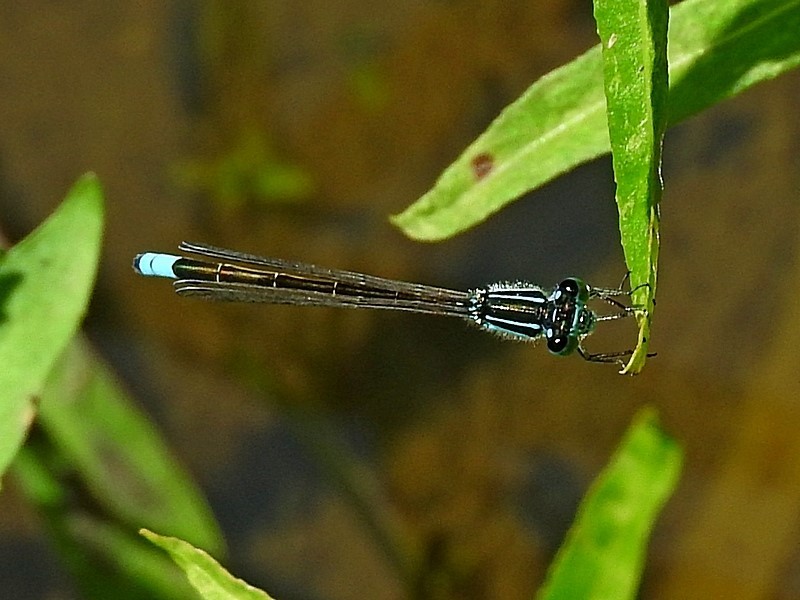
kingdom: Animalia
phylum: Arthropoda
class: Insecta
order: Odonata
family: Coenagrionidae
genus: Ischnura
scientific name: Ischnura heterosticta
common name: Common bluetail
